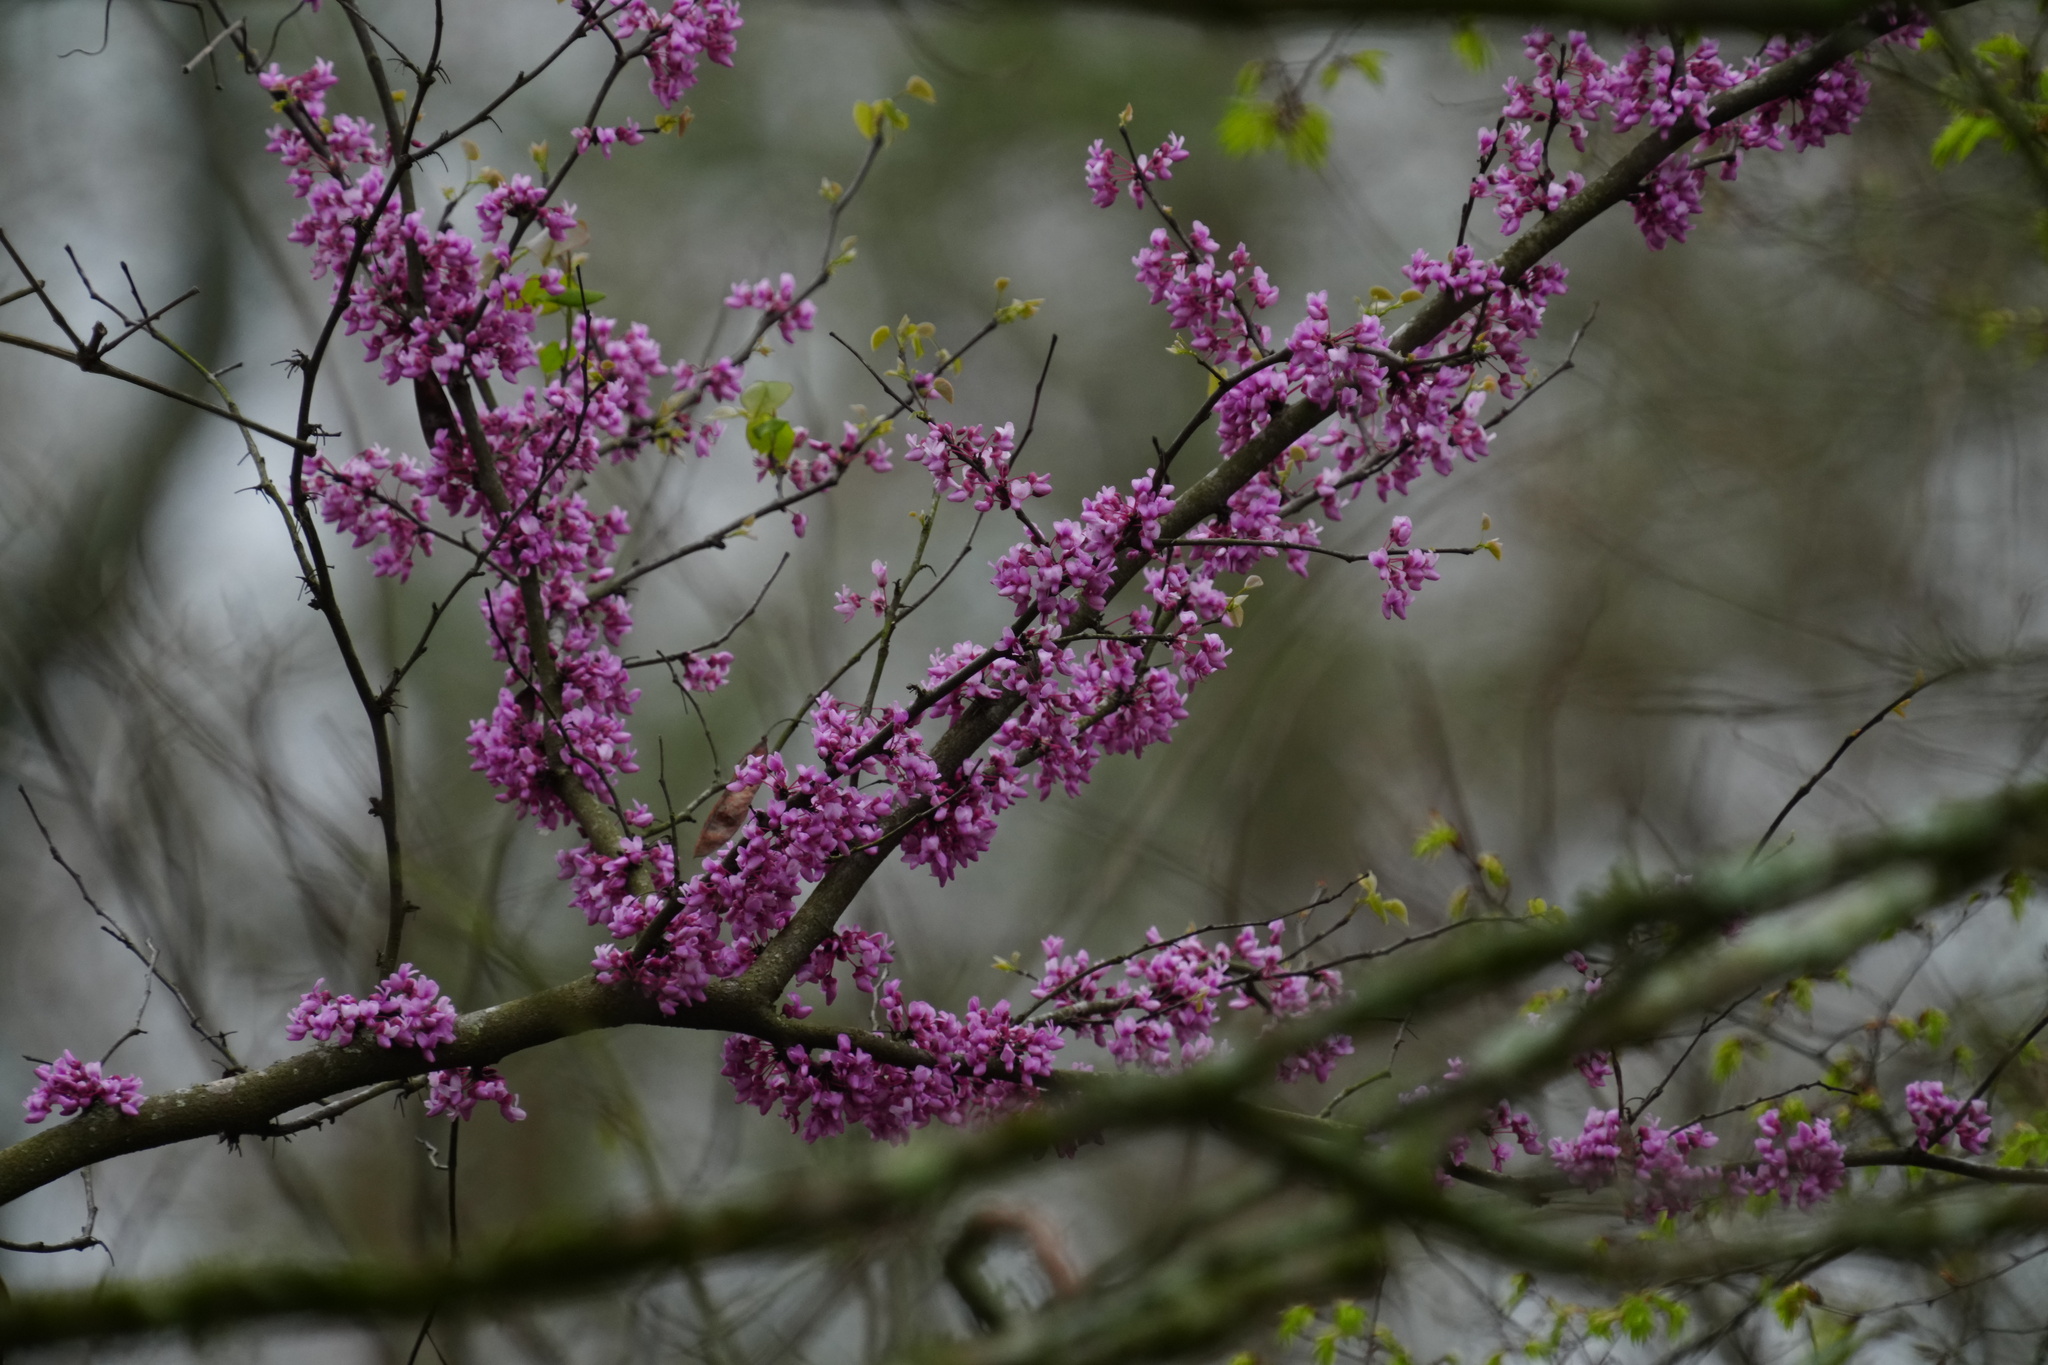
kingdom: Plantae
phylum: Tracheophyta
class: Magnoliopsida
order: Fabales
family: Fabaceae
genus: Cercis
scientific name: Cercis canadensis
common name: Eastern redbud
